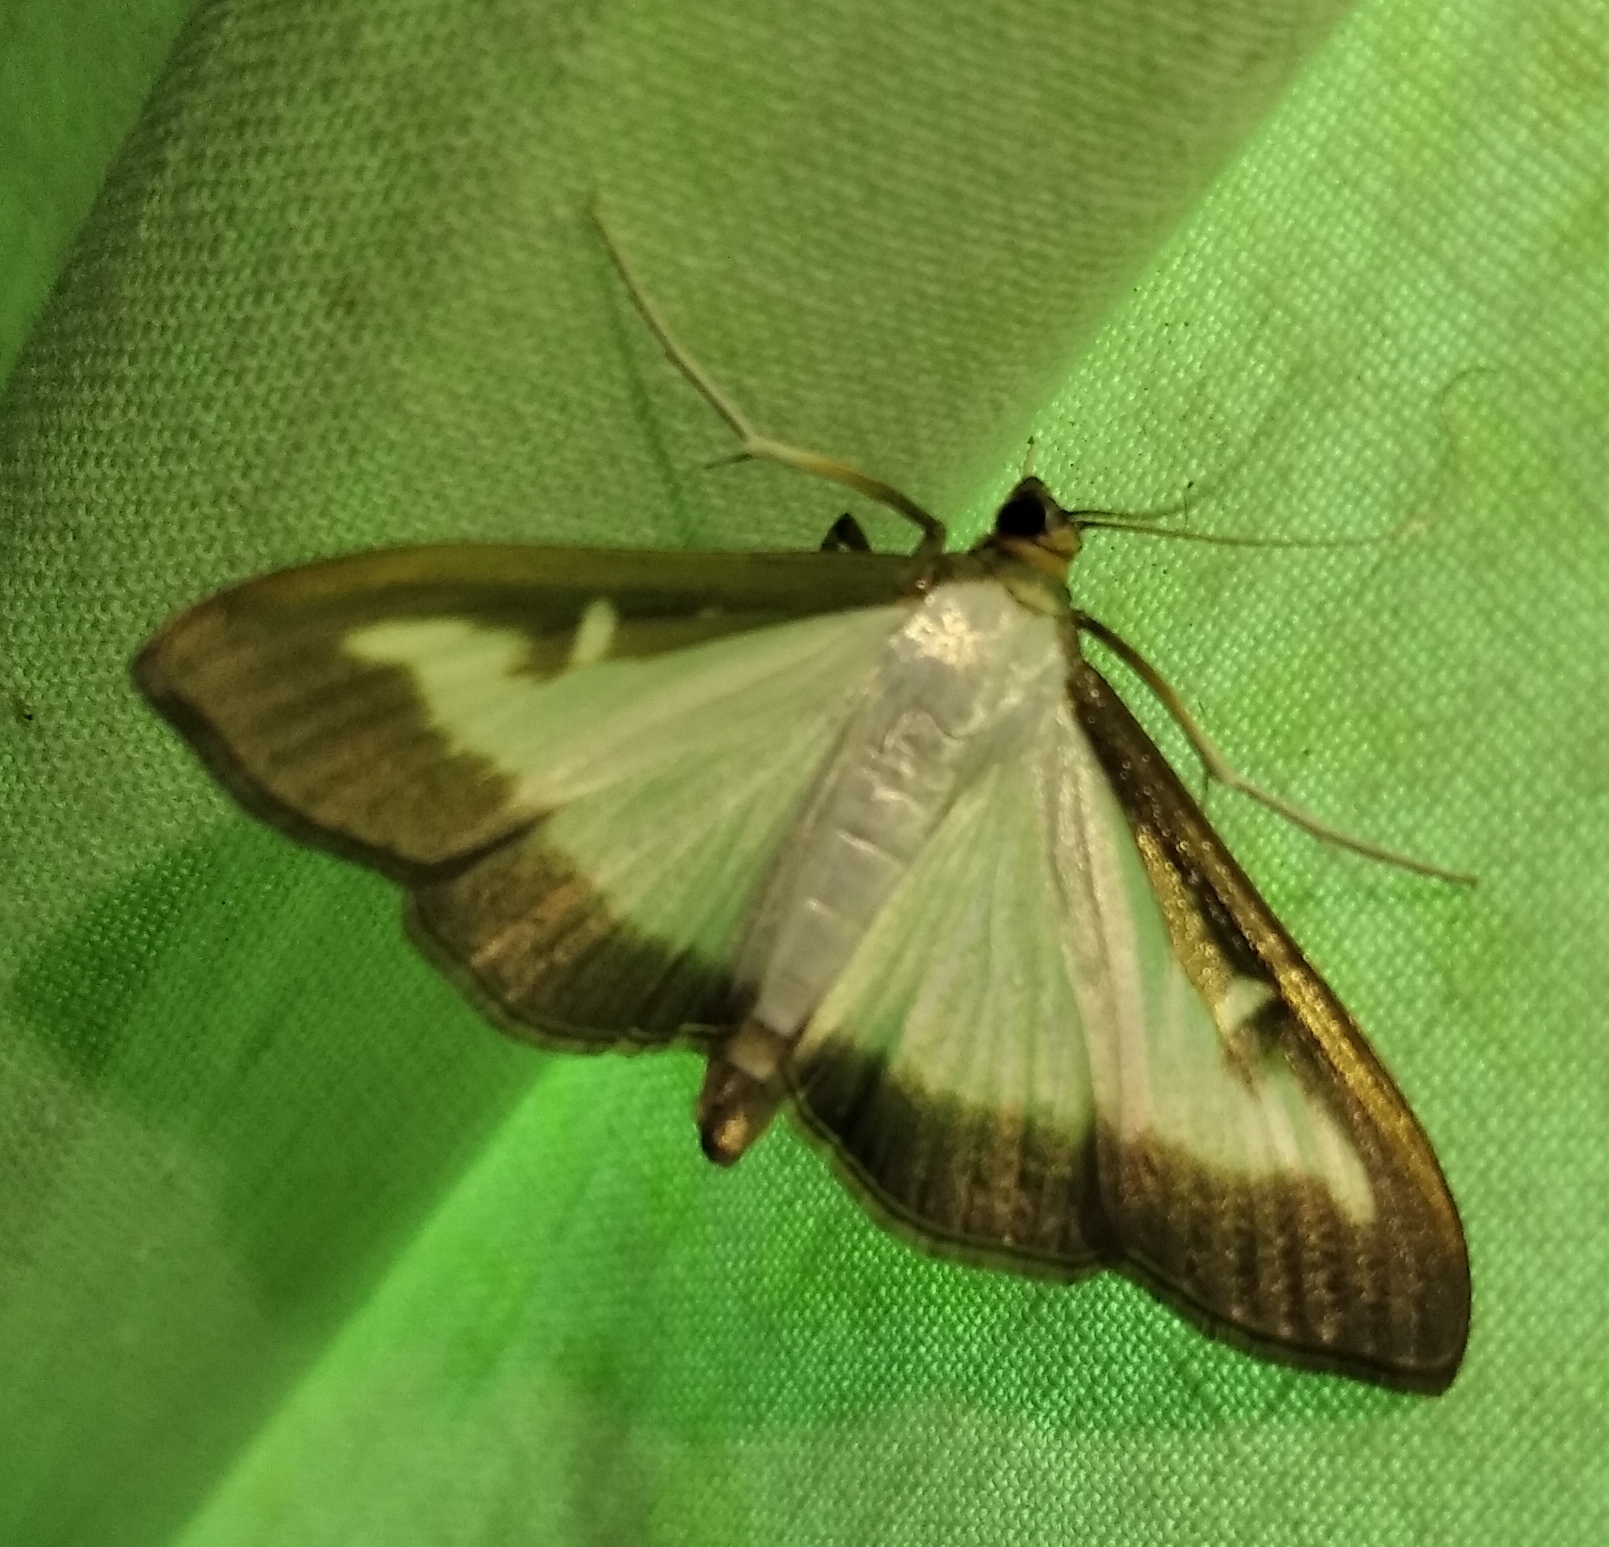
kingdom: Animalia
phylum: Arthropoda
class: Insecta
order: Lepidoptera
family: Crambidae
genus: Cydalima
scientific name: Cydalima perspectalis
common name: Box tree moth
